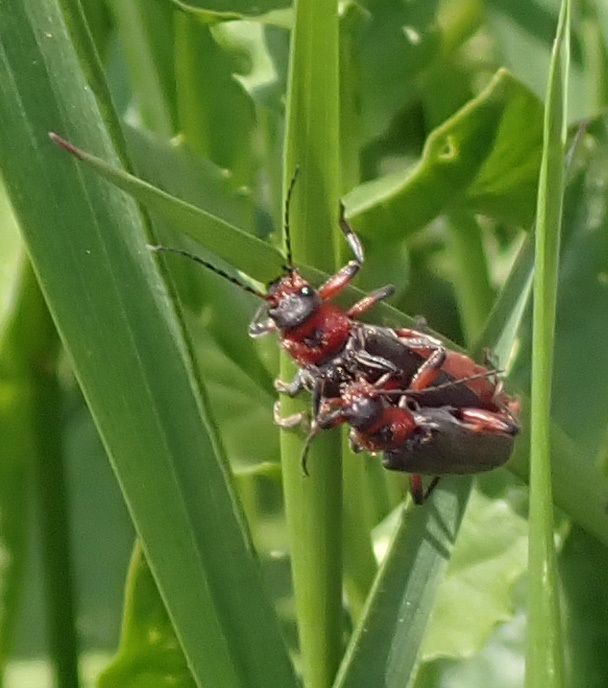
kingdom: Animalia
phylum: Arthropoda
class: Insecta
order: Coleoptera
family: Cantharidae
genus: Cantharis
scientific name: Cantharis rustica
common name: Soldier beetle
